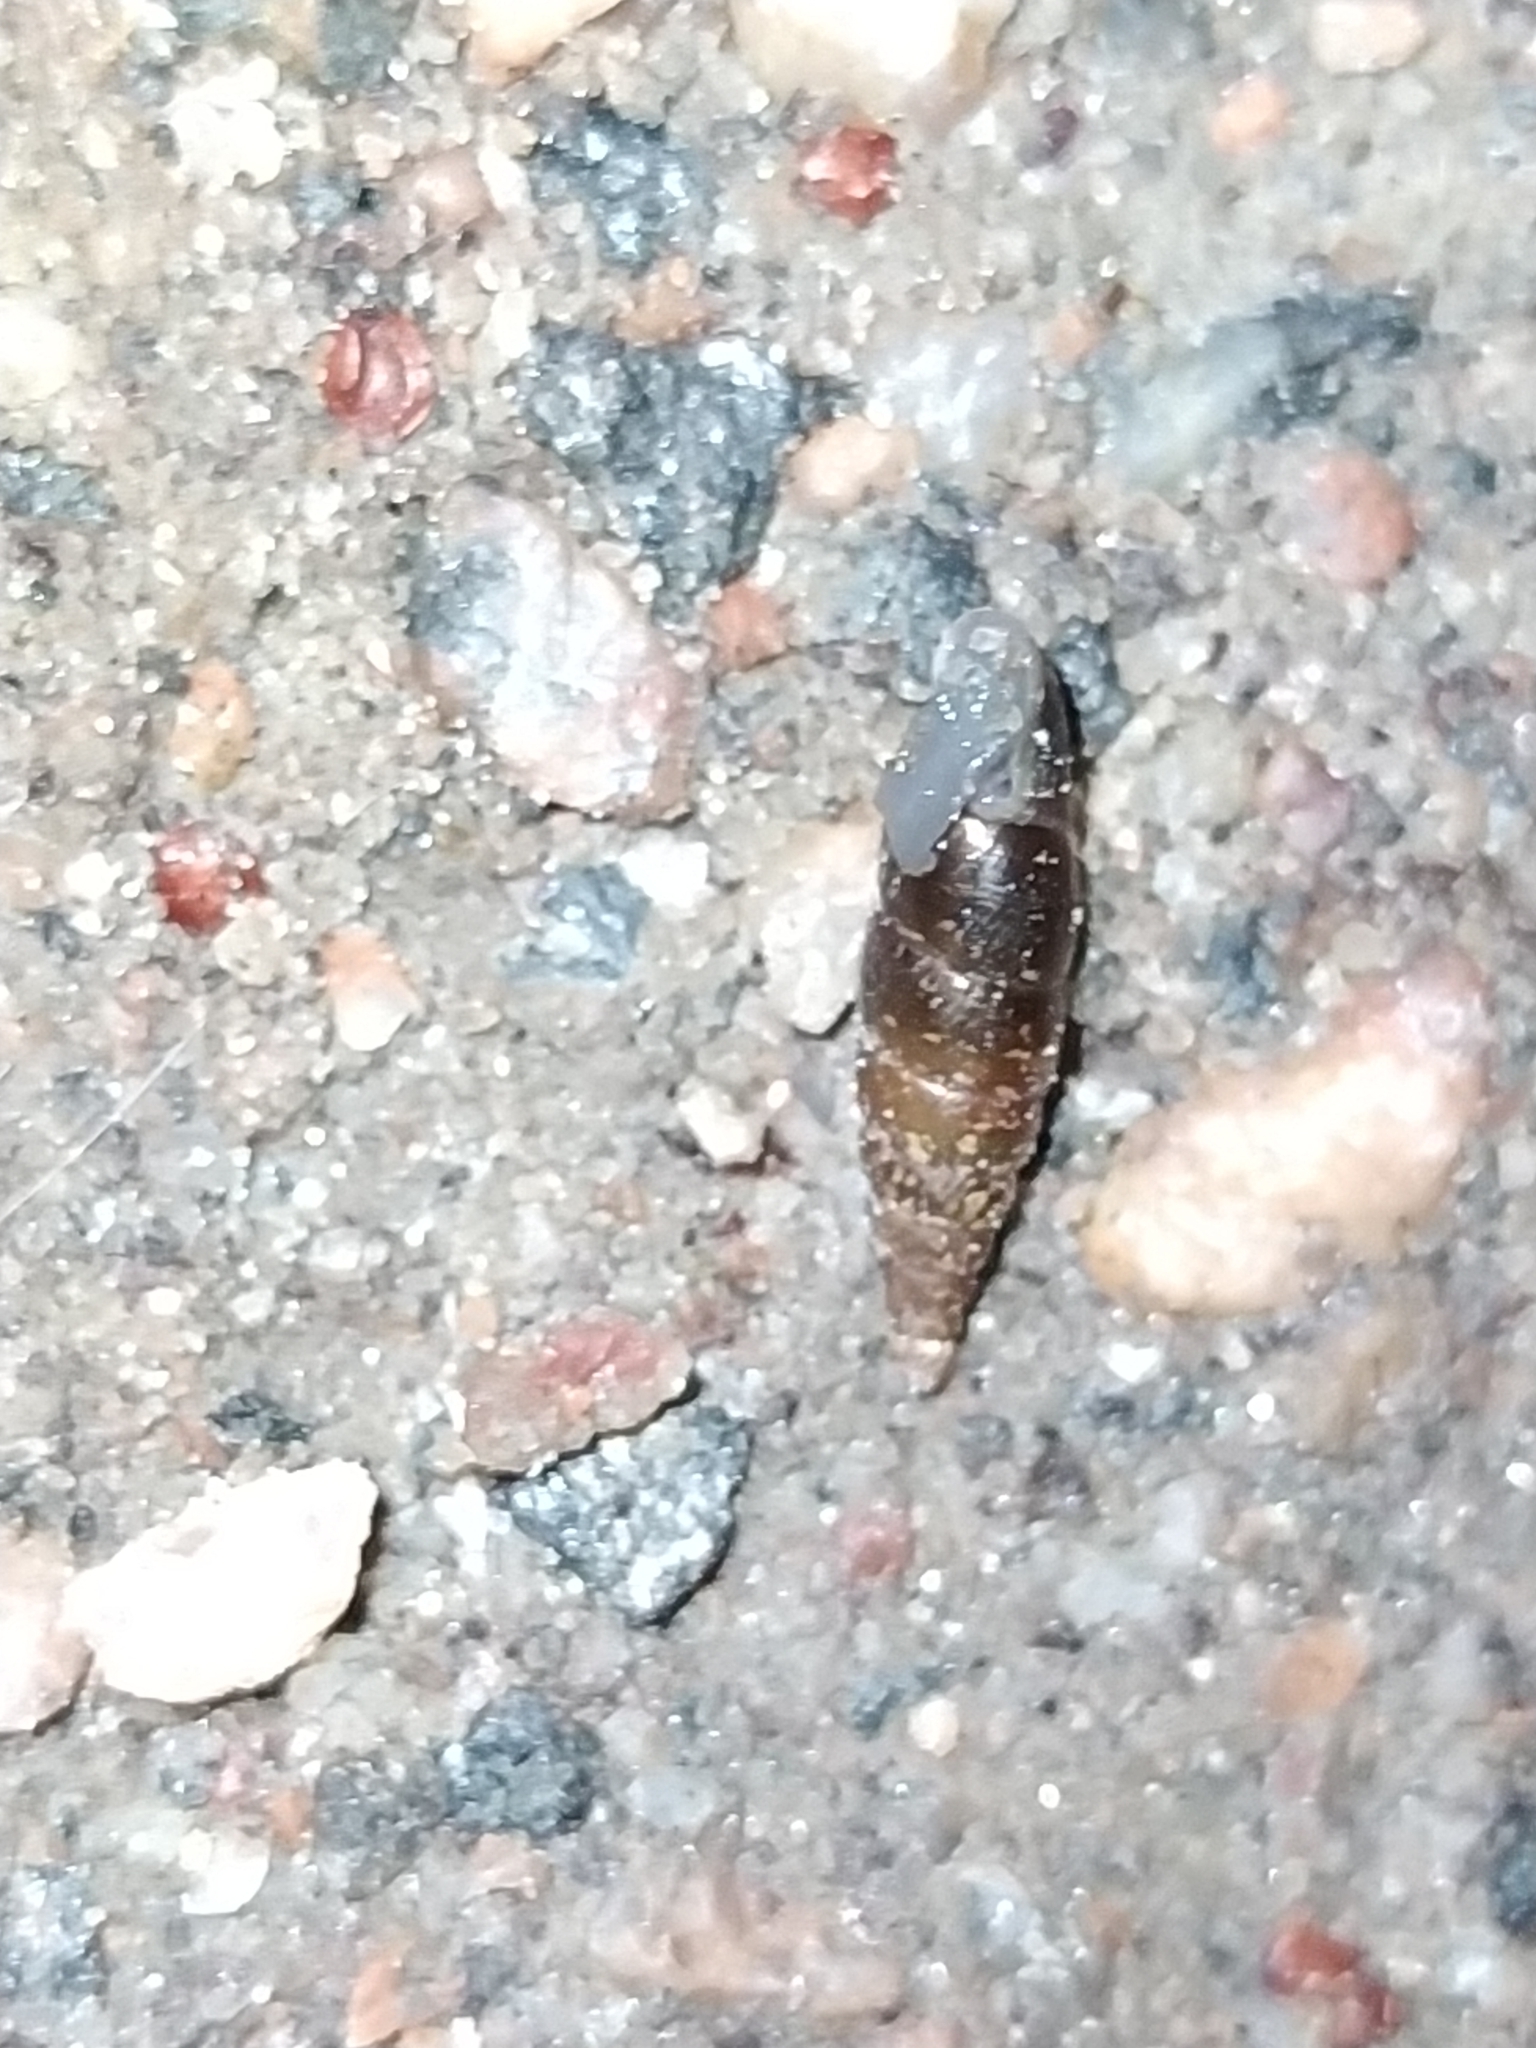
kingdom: Animalia
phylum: Mollusca
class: Gastropoda
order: Stylommatophora
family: Clausiliidae
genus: Cochlodina
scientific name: Cochlodina laminata
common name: Plaited door snail
